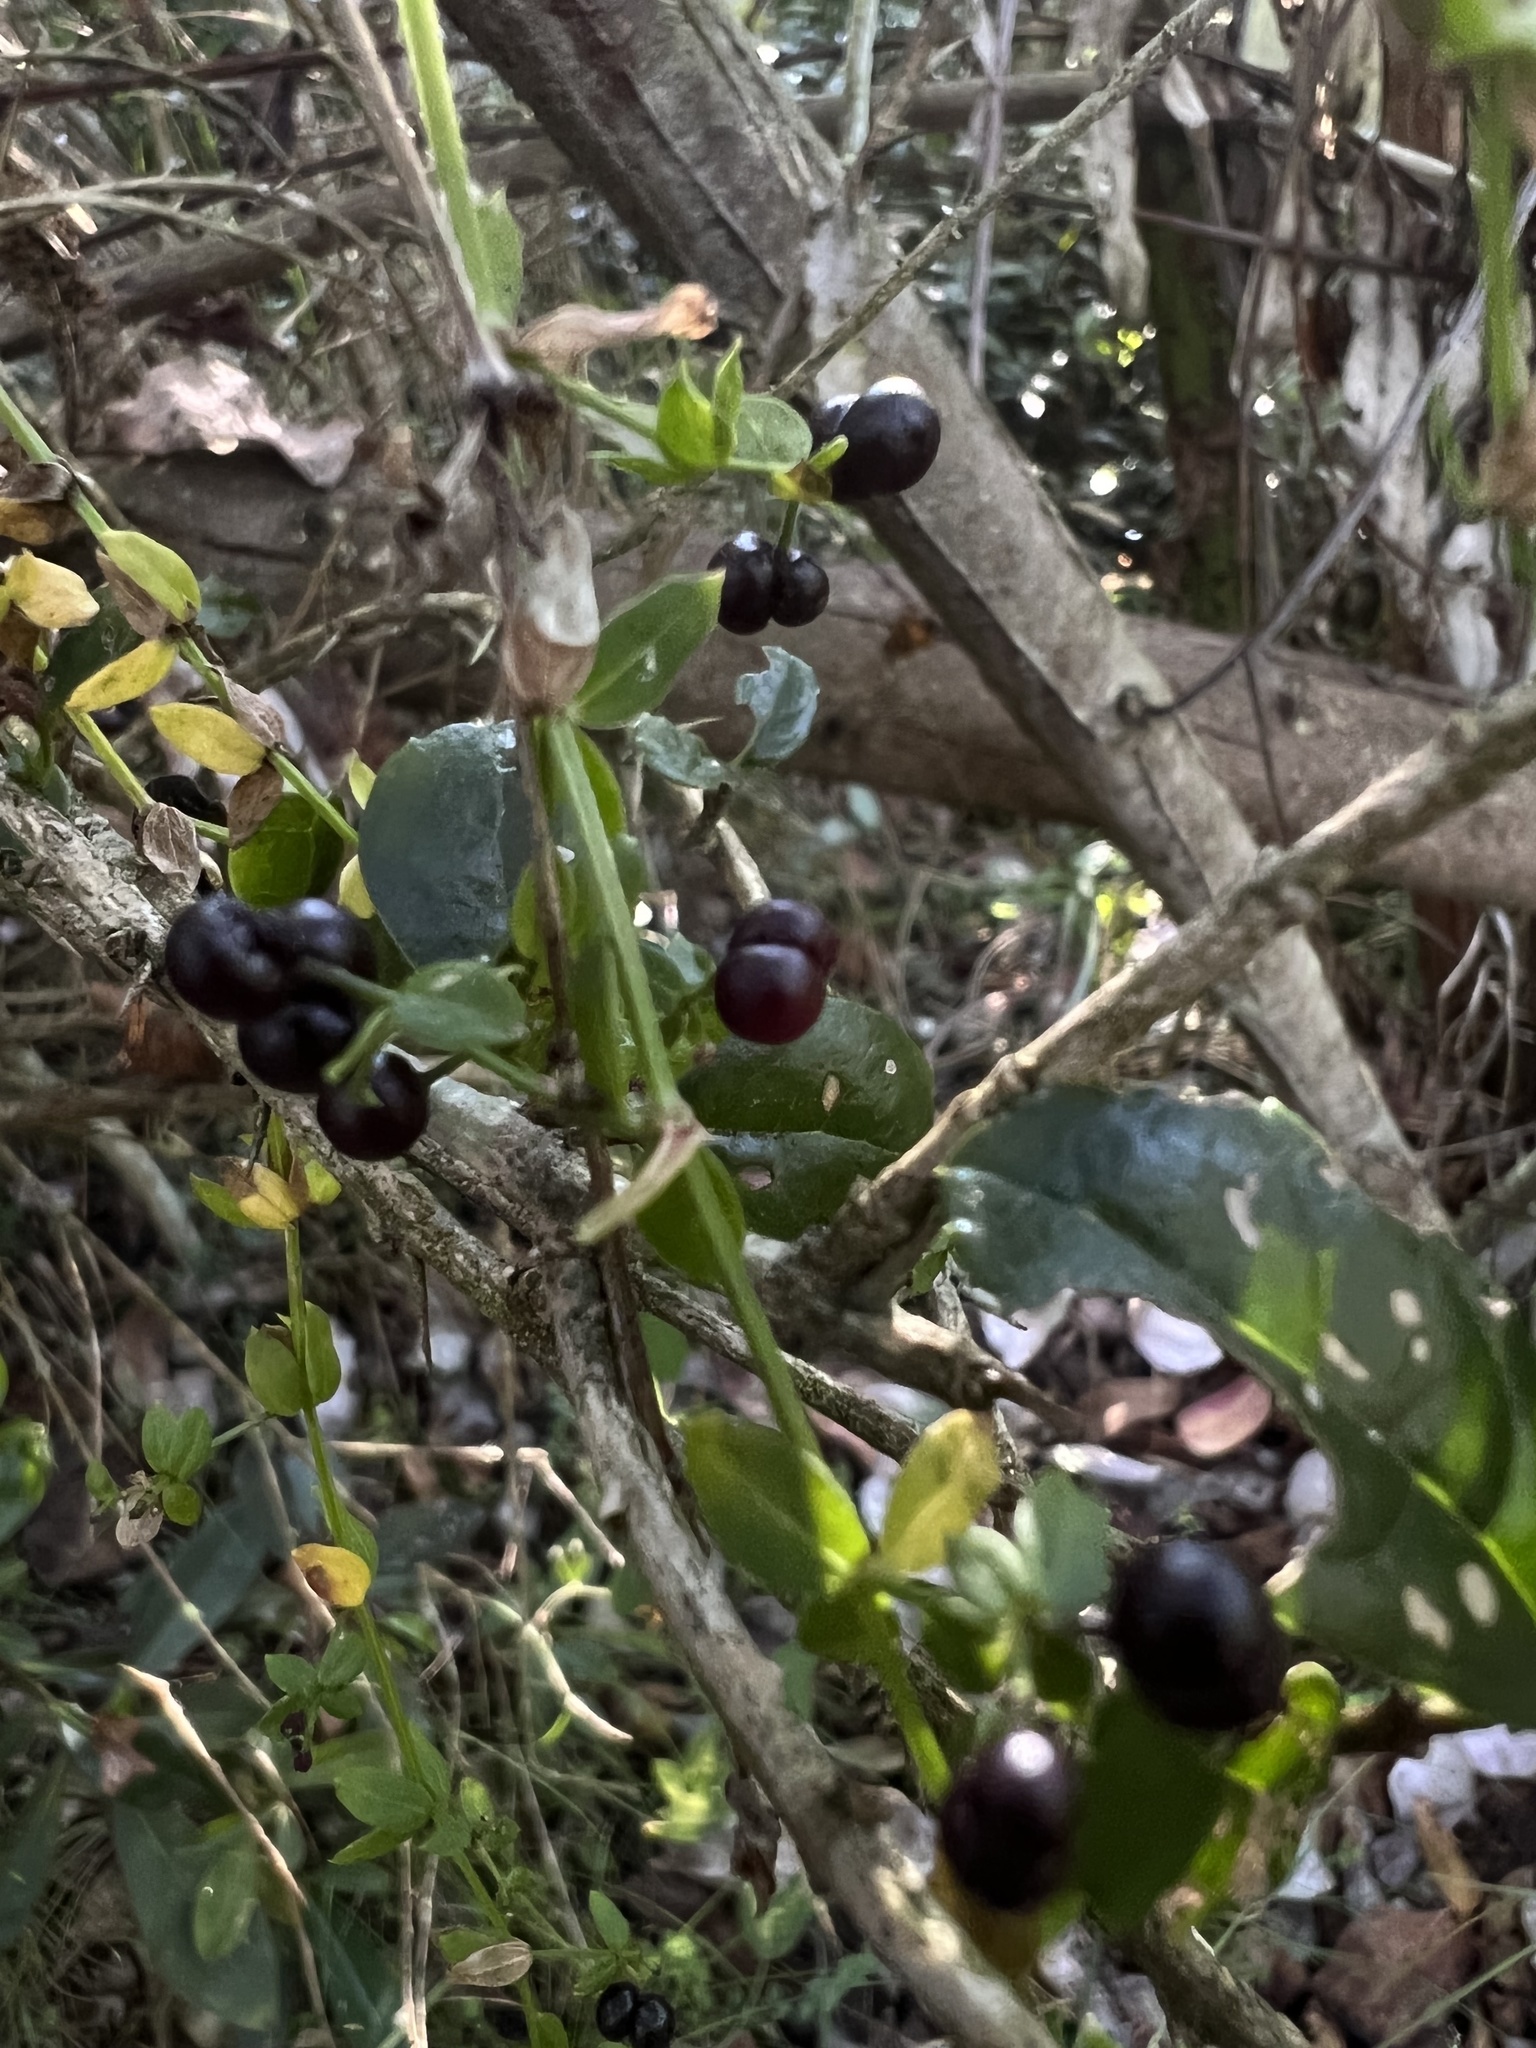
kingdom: Plantae
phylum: Tracheophyta
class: Magnoliopsida
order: Gentianales
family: Rubiaceae
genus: Galium
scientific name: Galium aschenbornii
